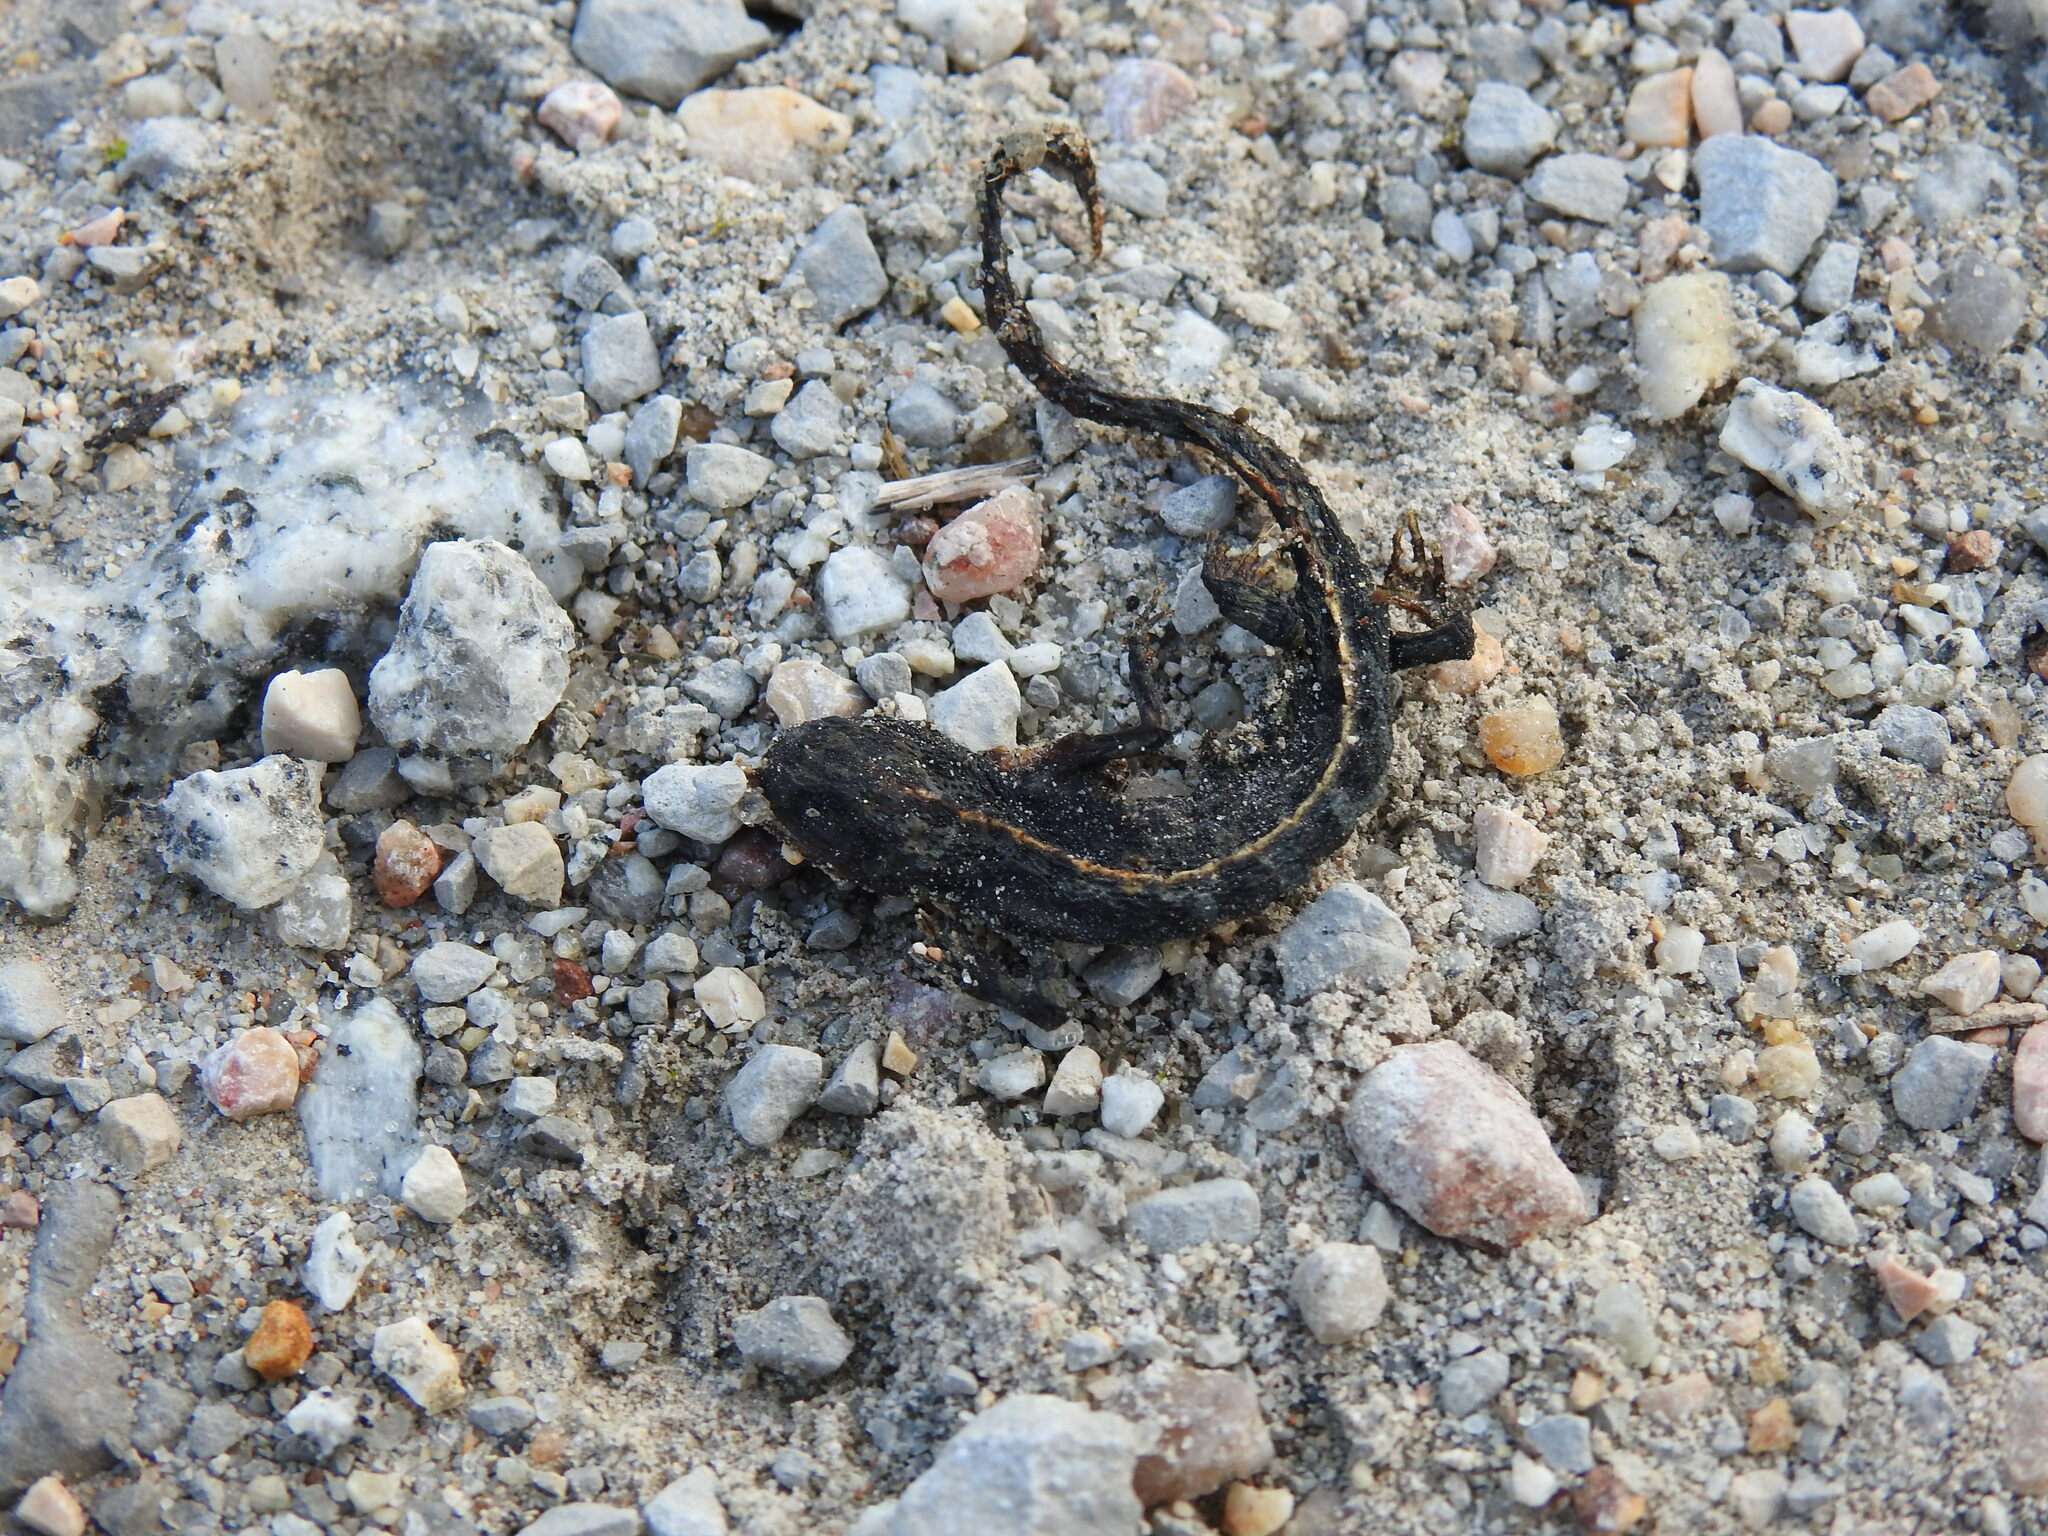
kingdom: Animalia
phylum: Chordata
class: Amphibia
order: Caudata
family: Salamandridae
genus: Triturus
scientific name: Triturus marmoratus
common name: Marbled newt
